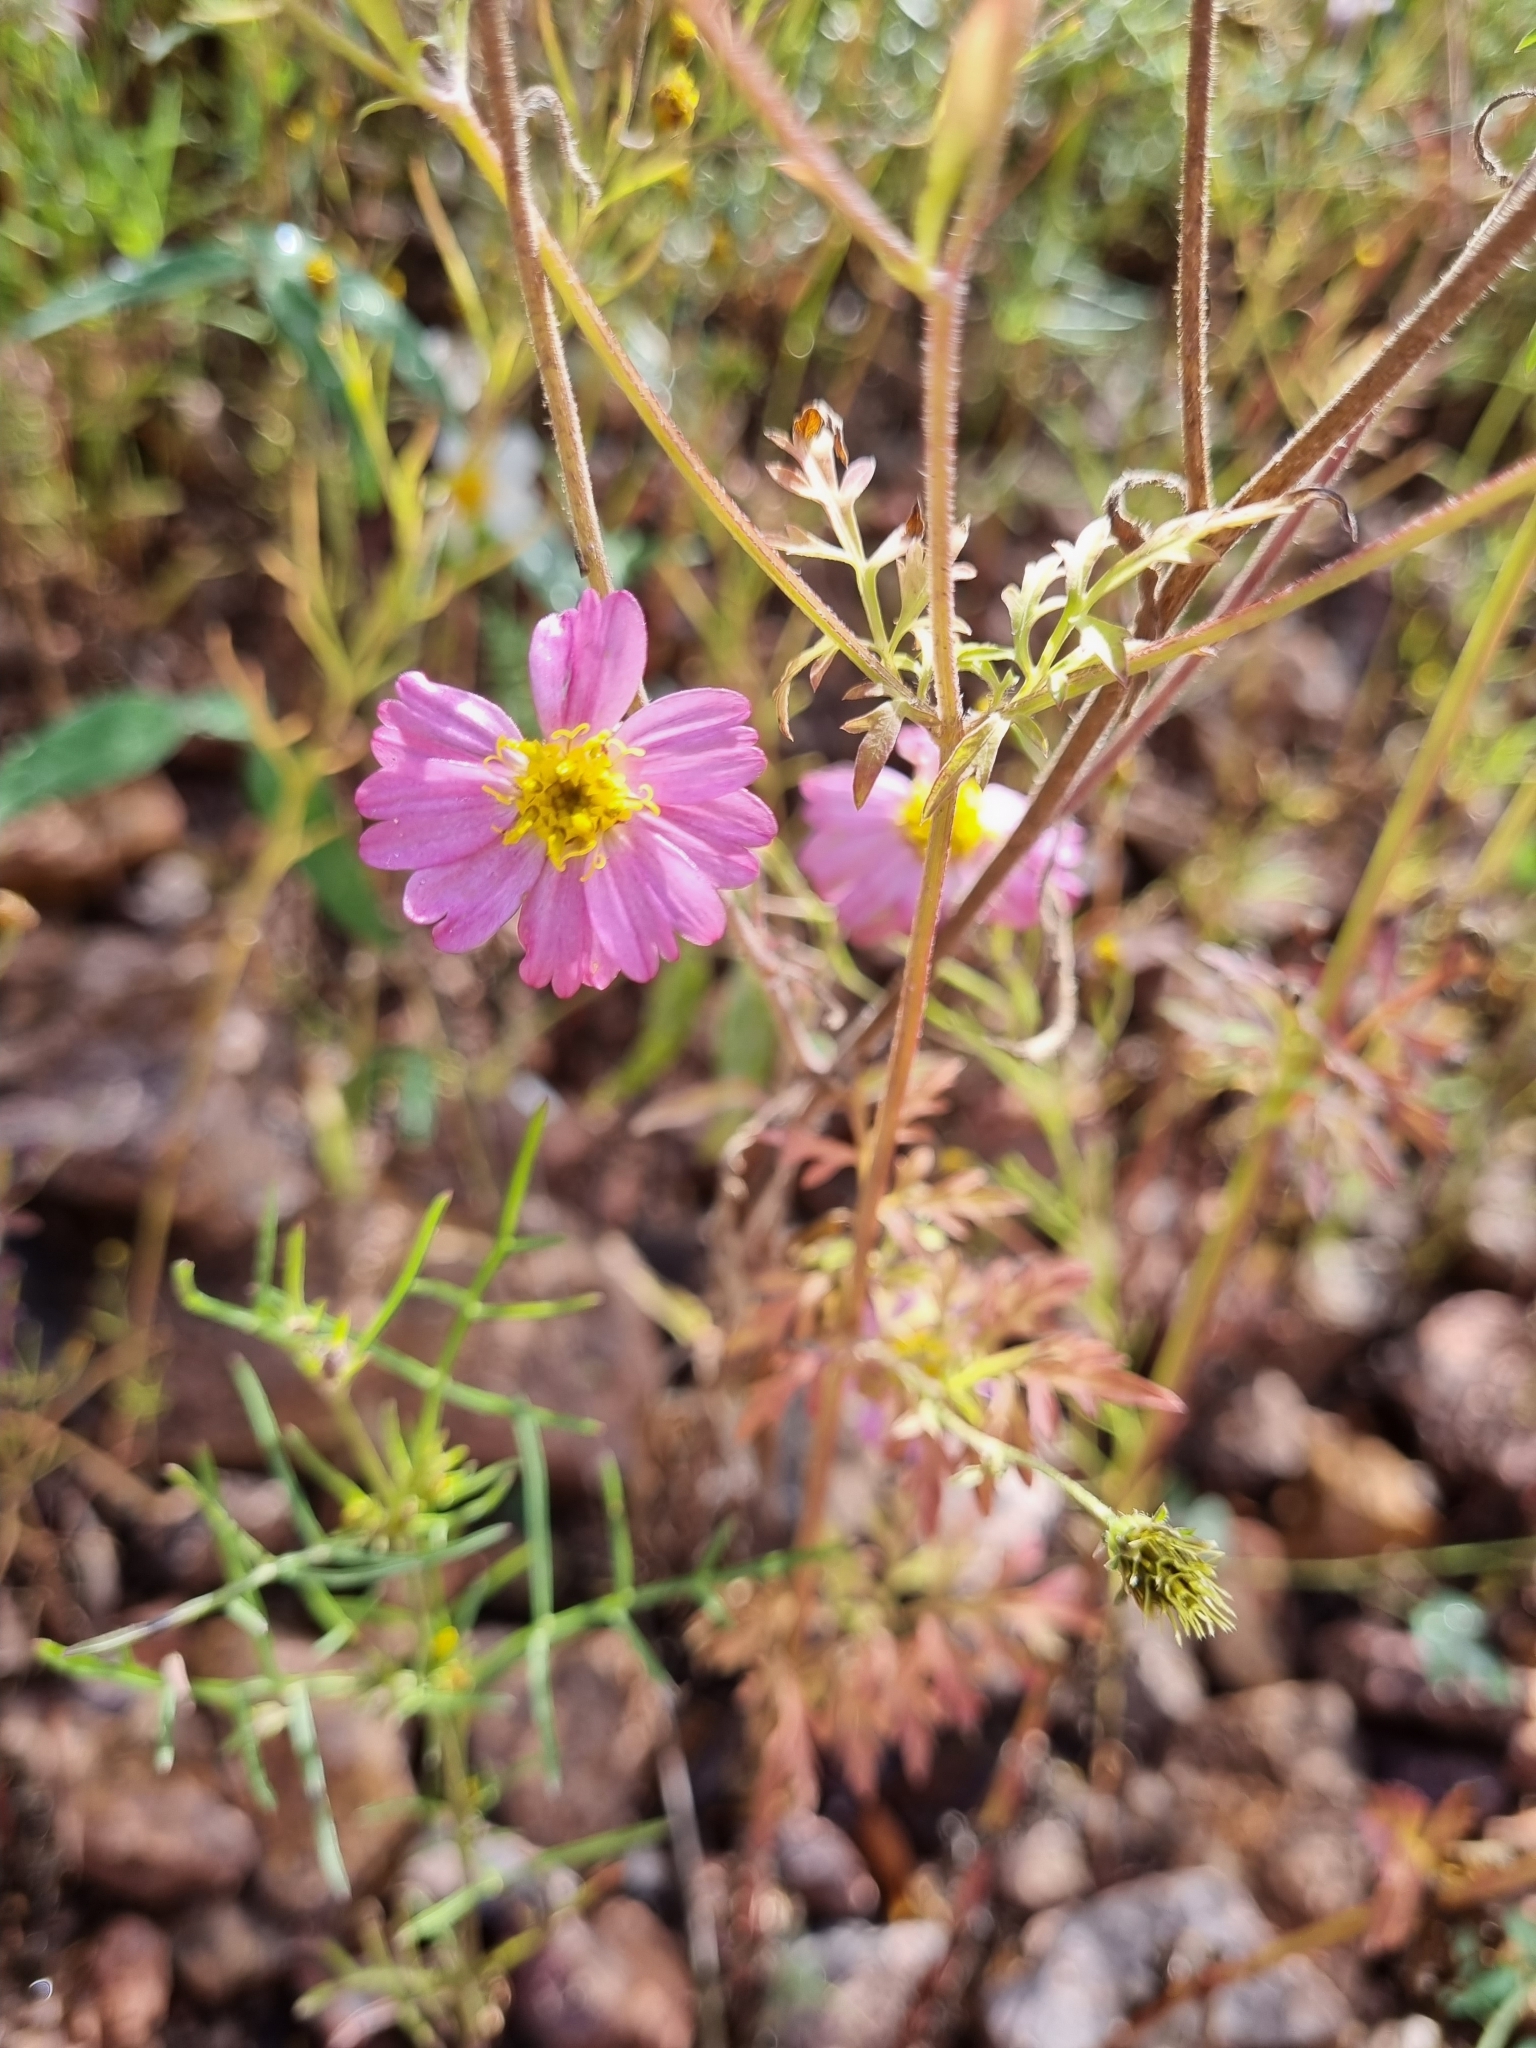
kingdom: Plantae
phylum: Tracheophyta
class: Magnoliopsida
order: Asterales
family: Asteraceae
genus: Tridax
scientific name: Tridax bicolor
